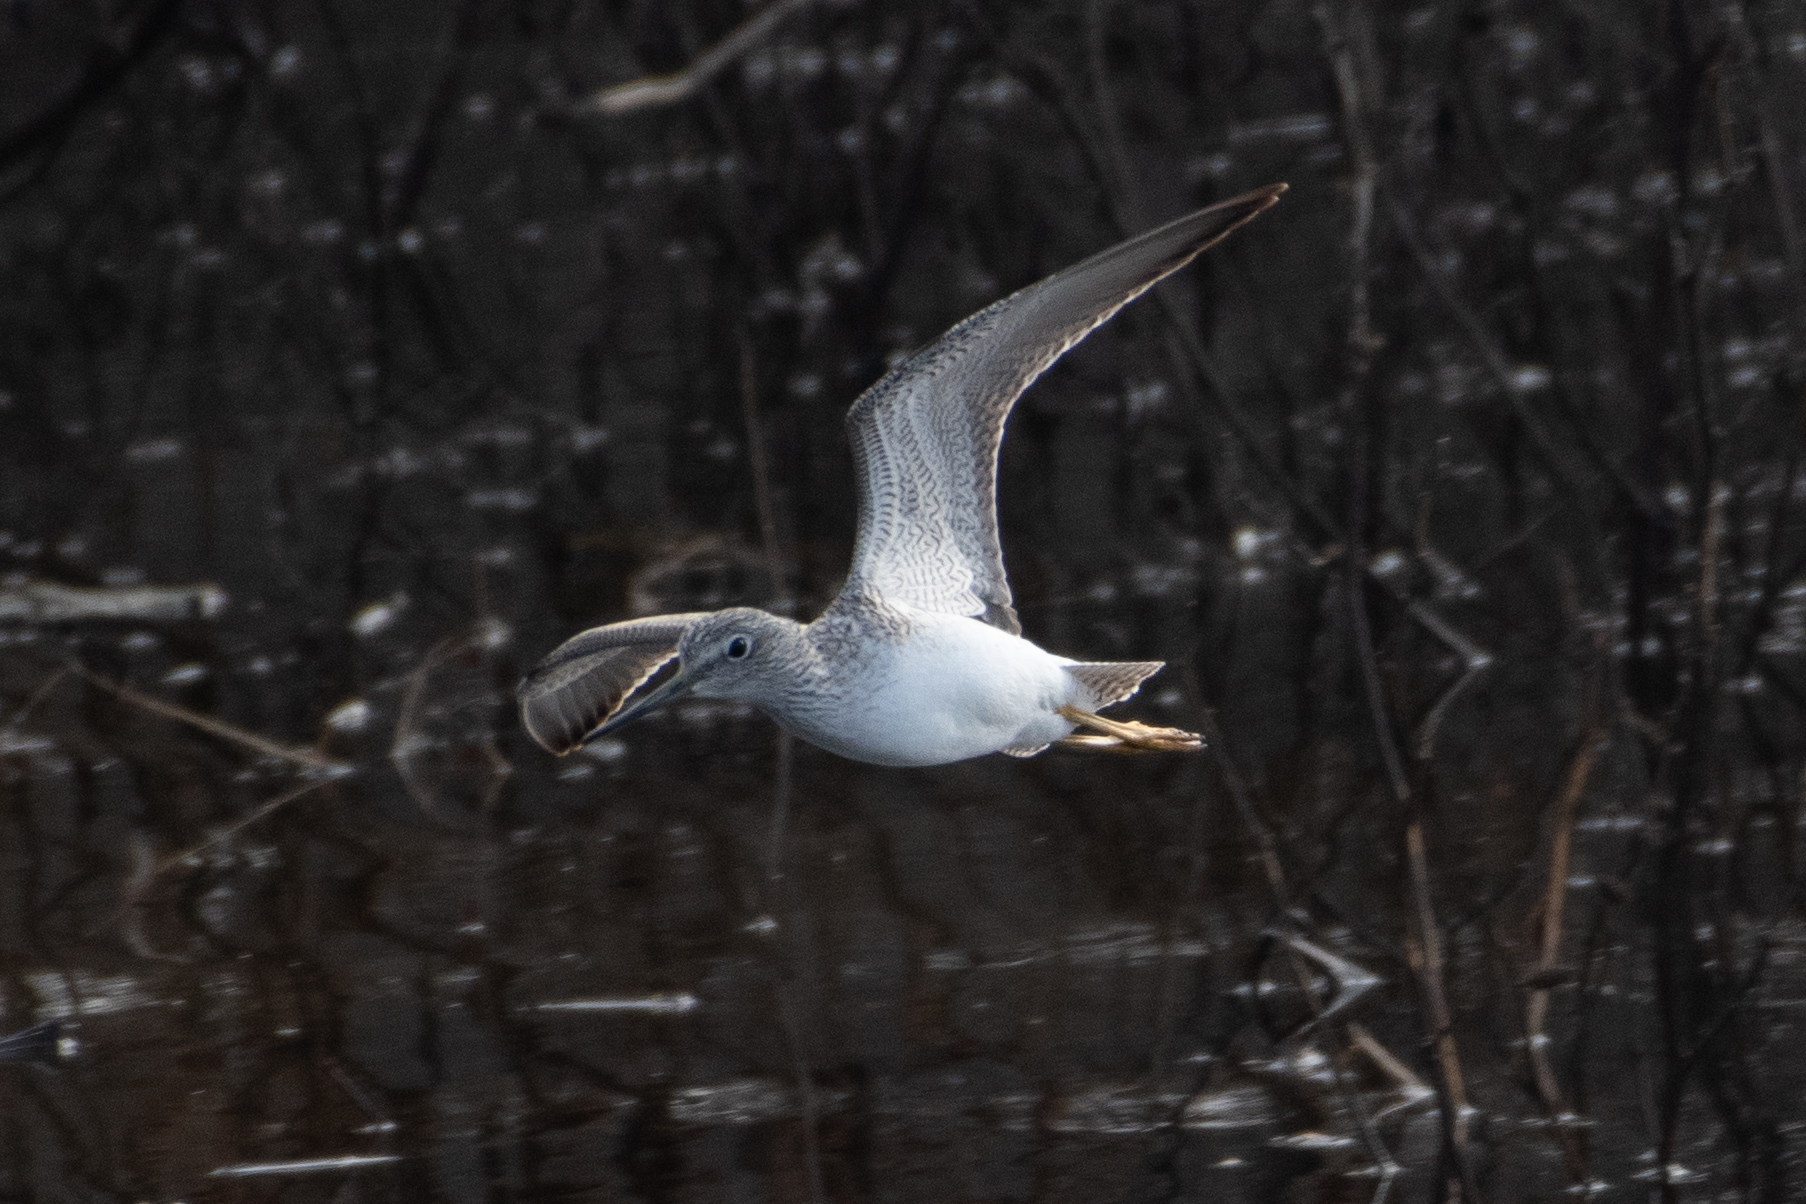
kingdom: Animalia
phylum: Chordata
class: Aves
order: Charadriiformes
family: Scolopacidae
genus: Tringa
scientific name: Tringa melanoleuca
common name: Greater yellowlegs
